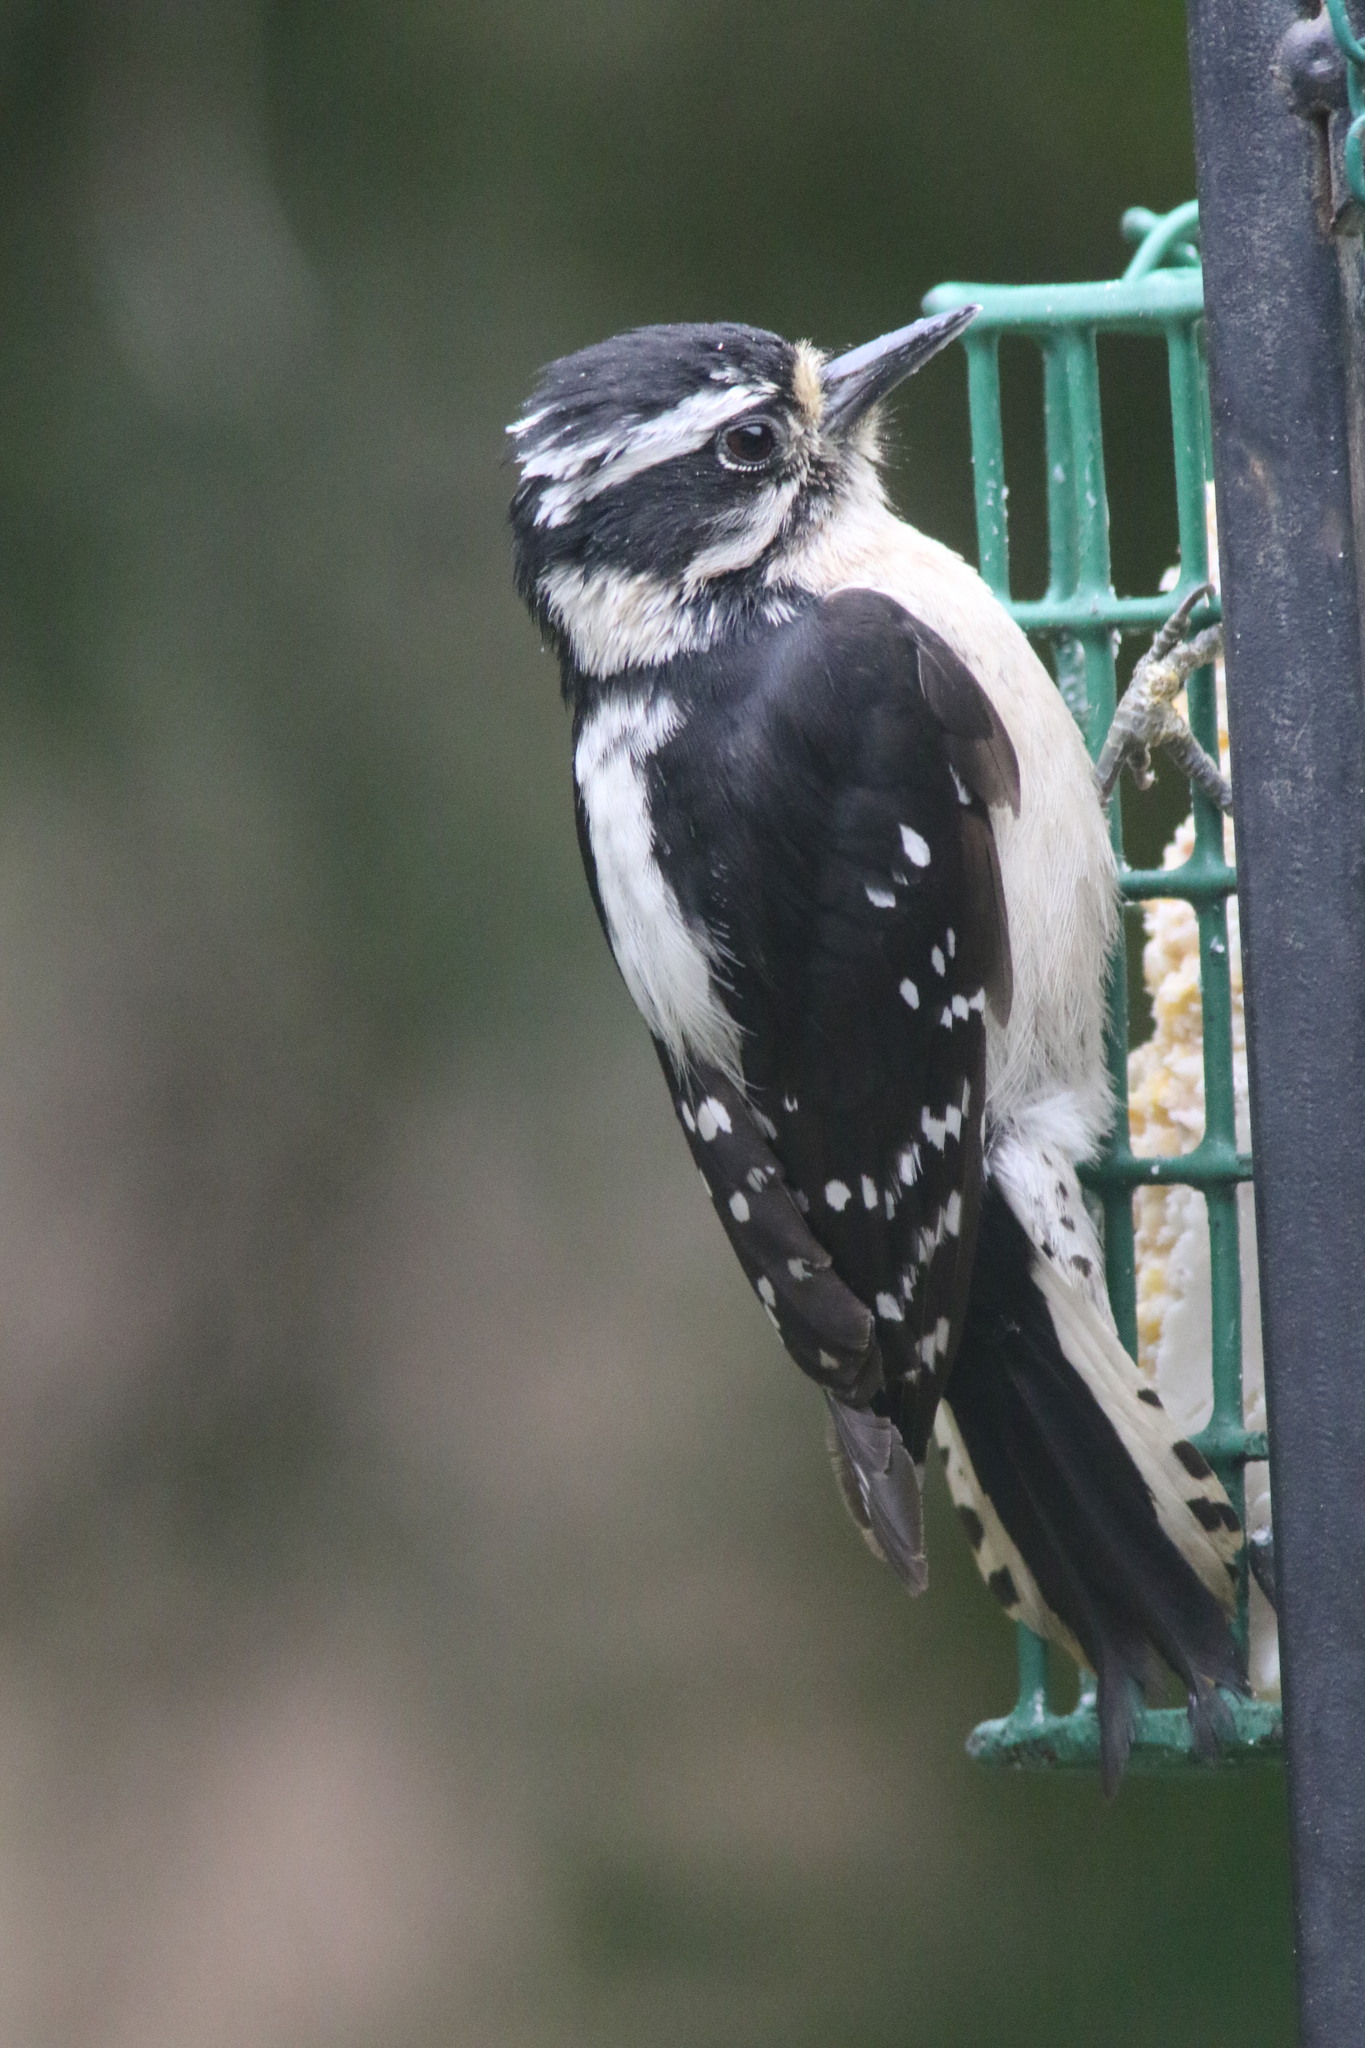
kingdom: Animalia
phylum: Chordata
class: Aves
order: Piciformes
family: Picidae
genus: Dryobates
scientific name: Dryobates pubescens
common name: Downy woodpecker
